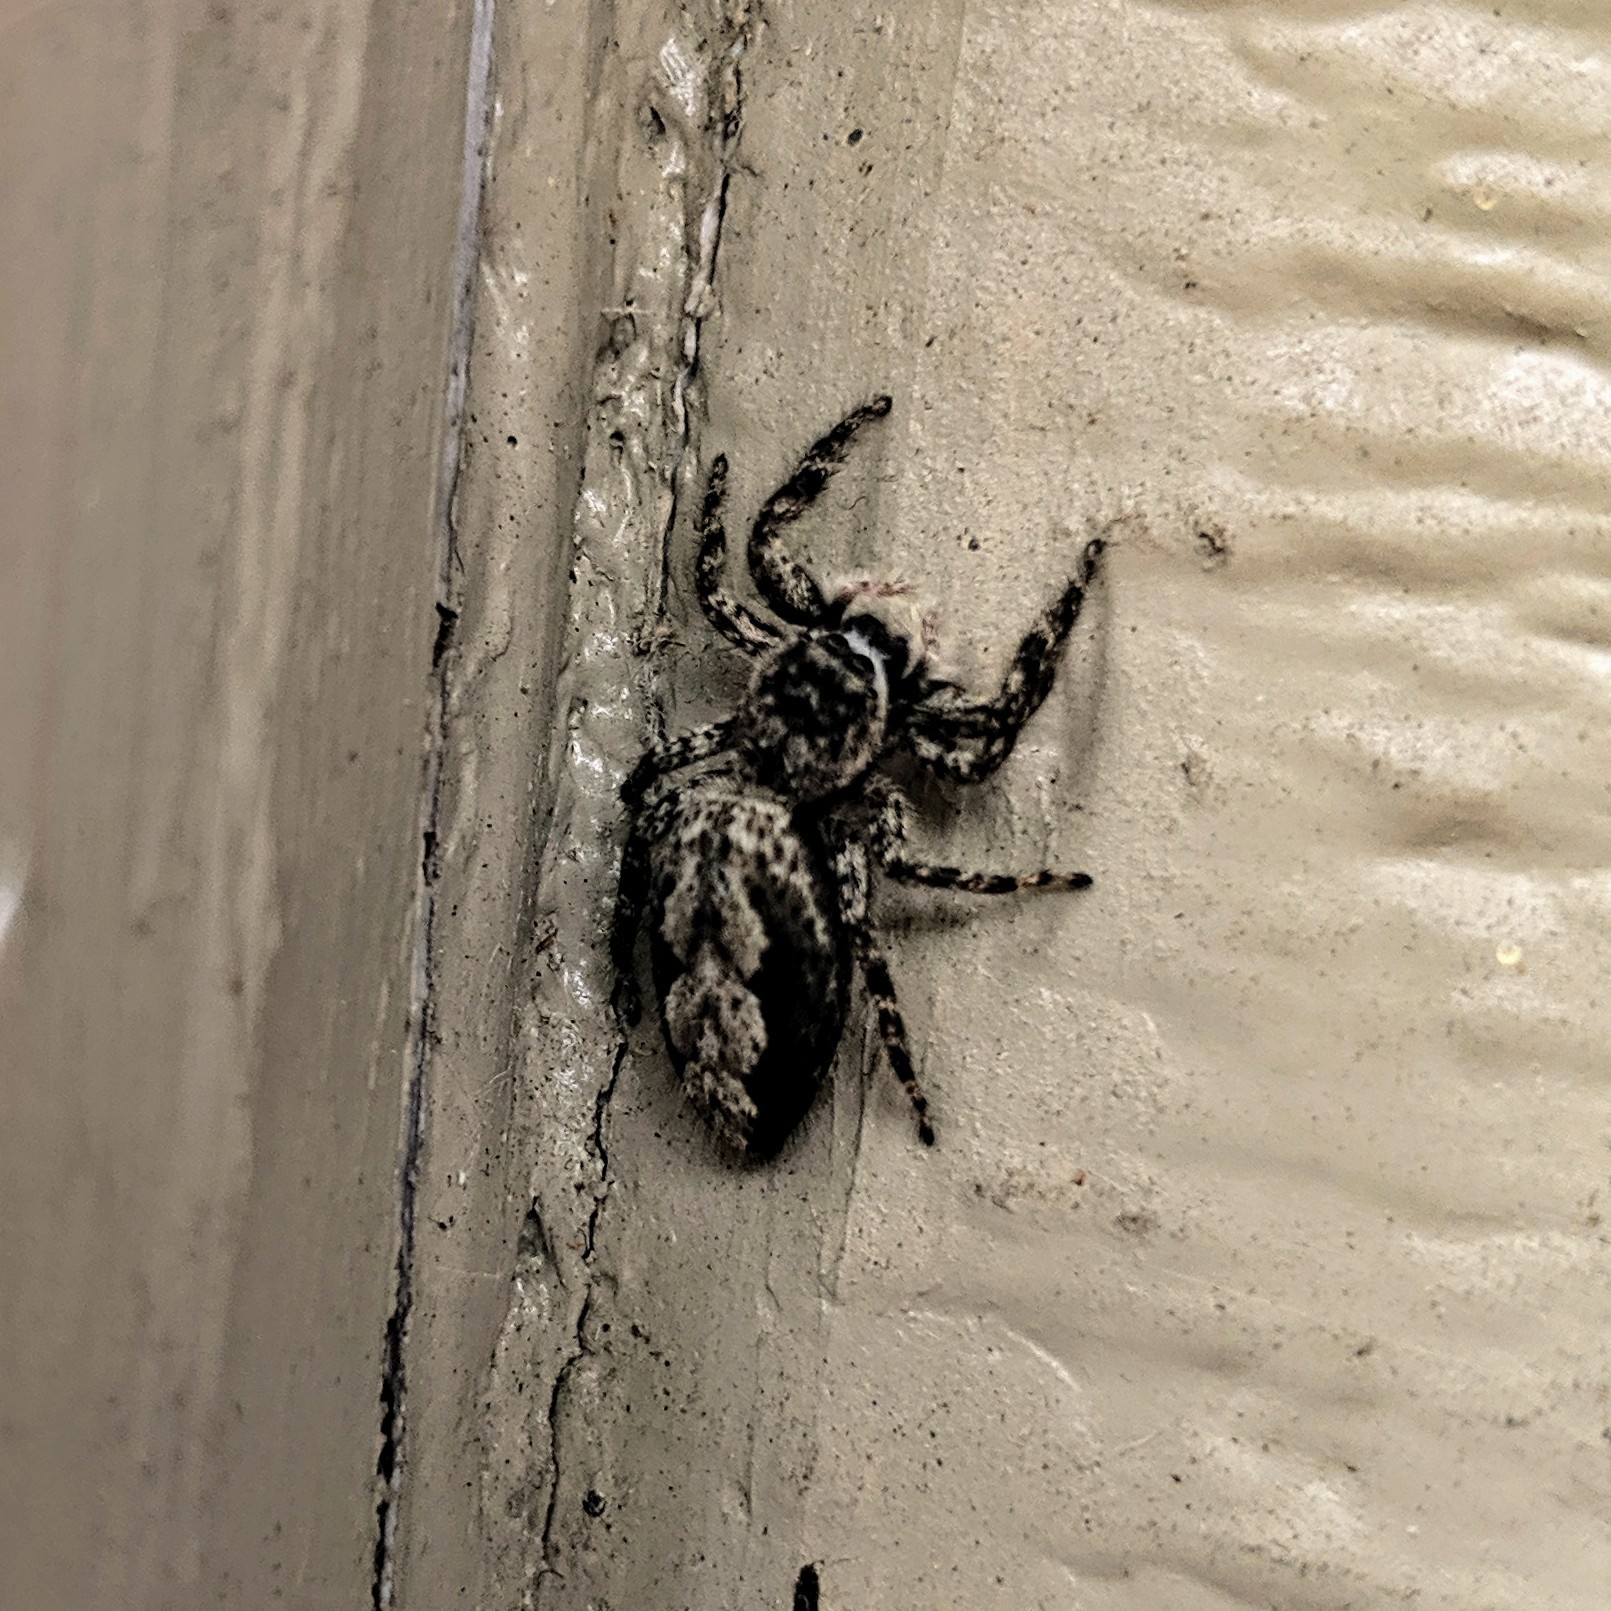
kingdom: Animalia
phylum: Arthropoda
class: Arachnida
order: Araneae
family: Salticidae
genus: Platycryptus
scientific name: Platycryptus undatus
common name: Tan jumping spider
